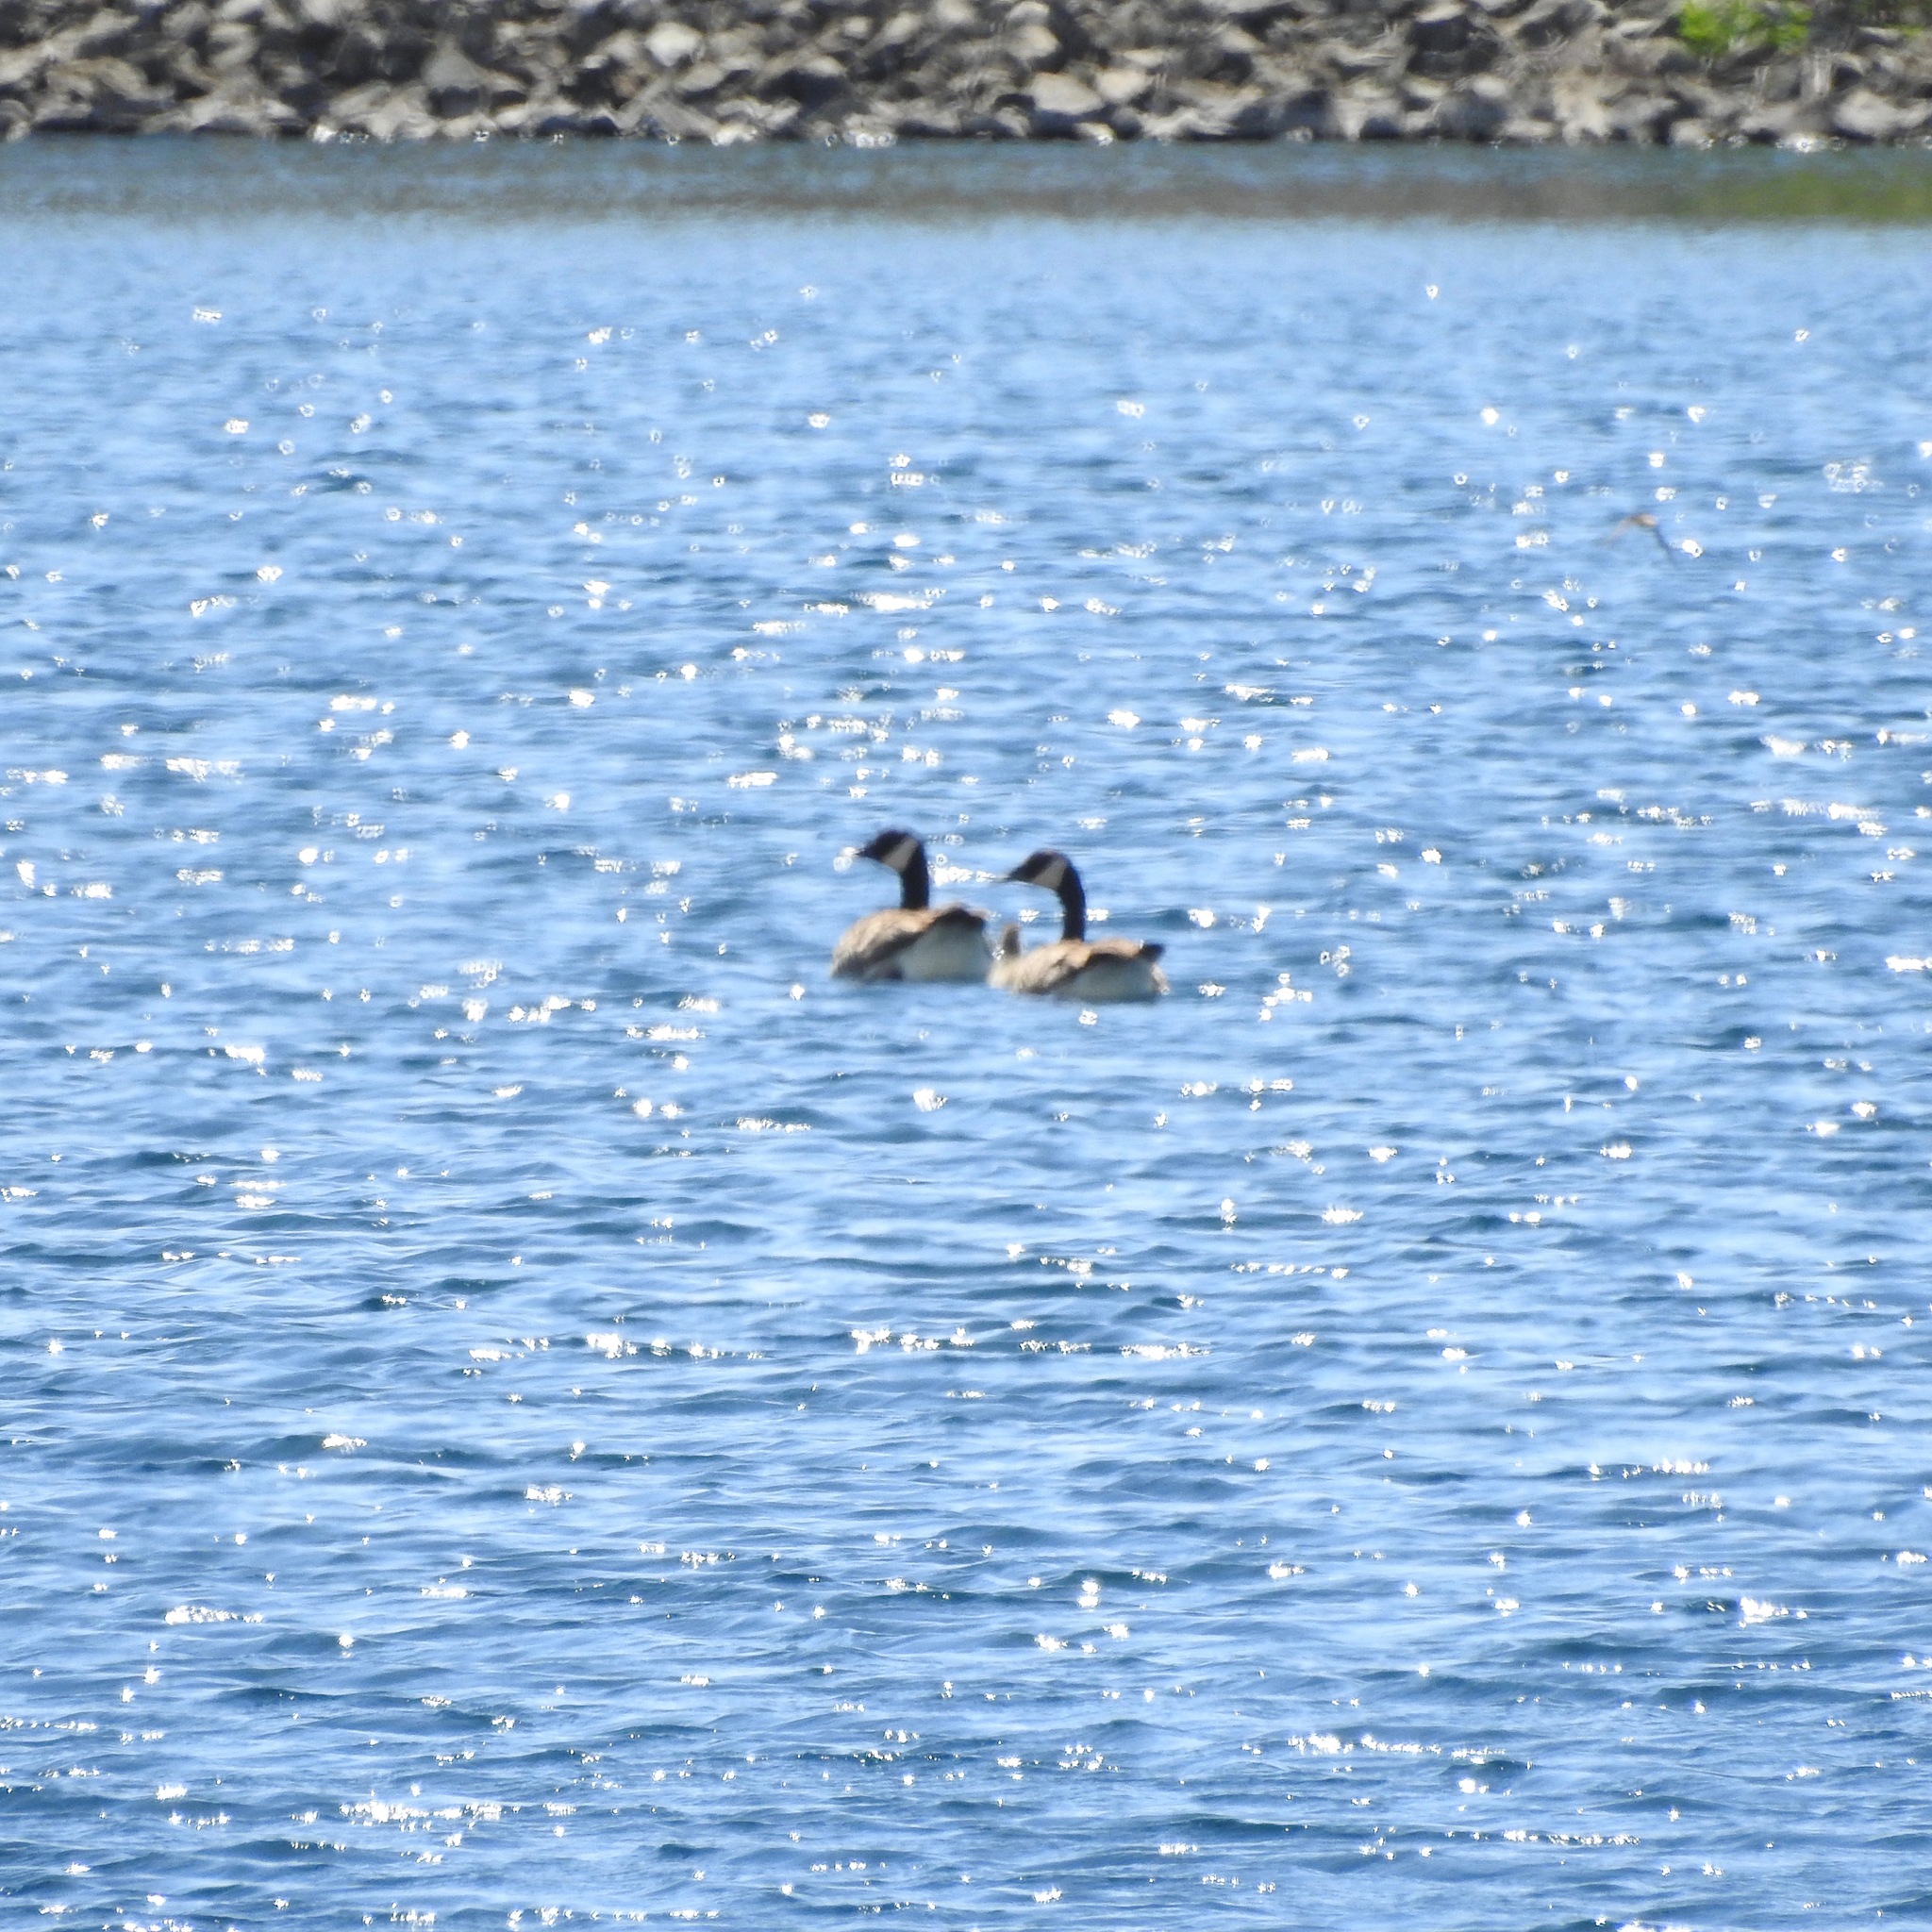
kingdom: Animalia
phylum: Chordata
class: Aves
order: Anseriformes
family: Anatidae
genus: Branta
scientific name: Branta canadensis
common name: Canada goose
